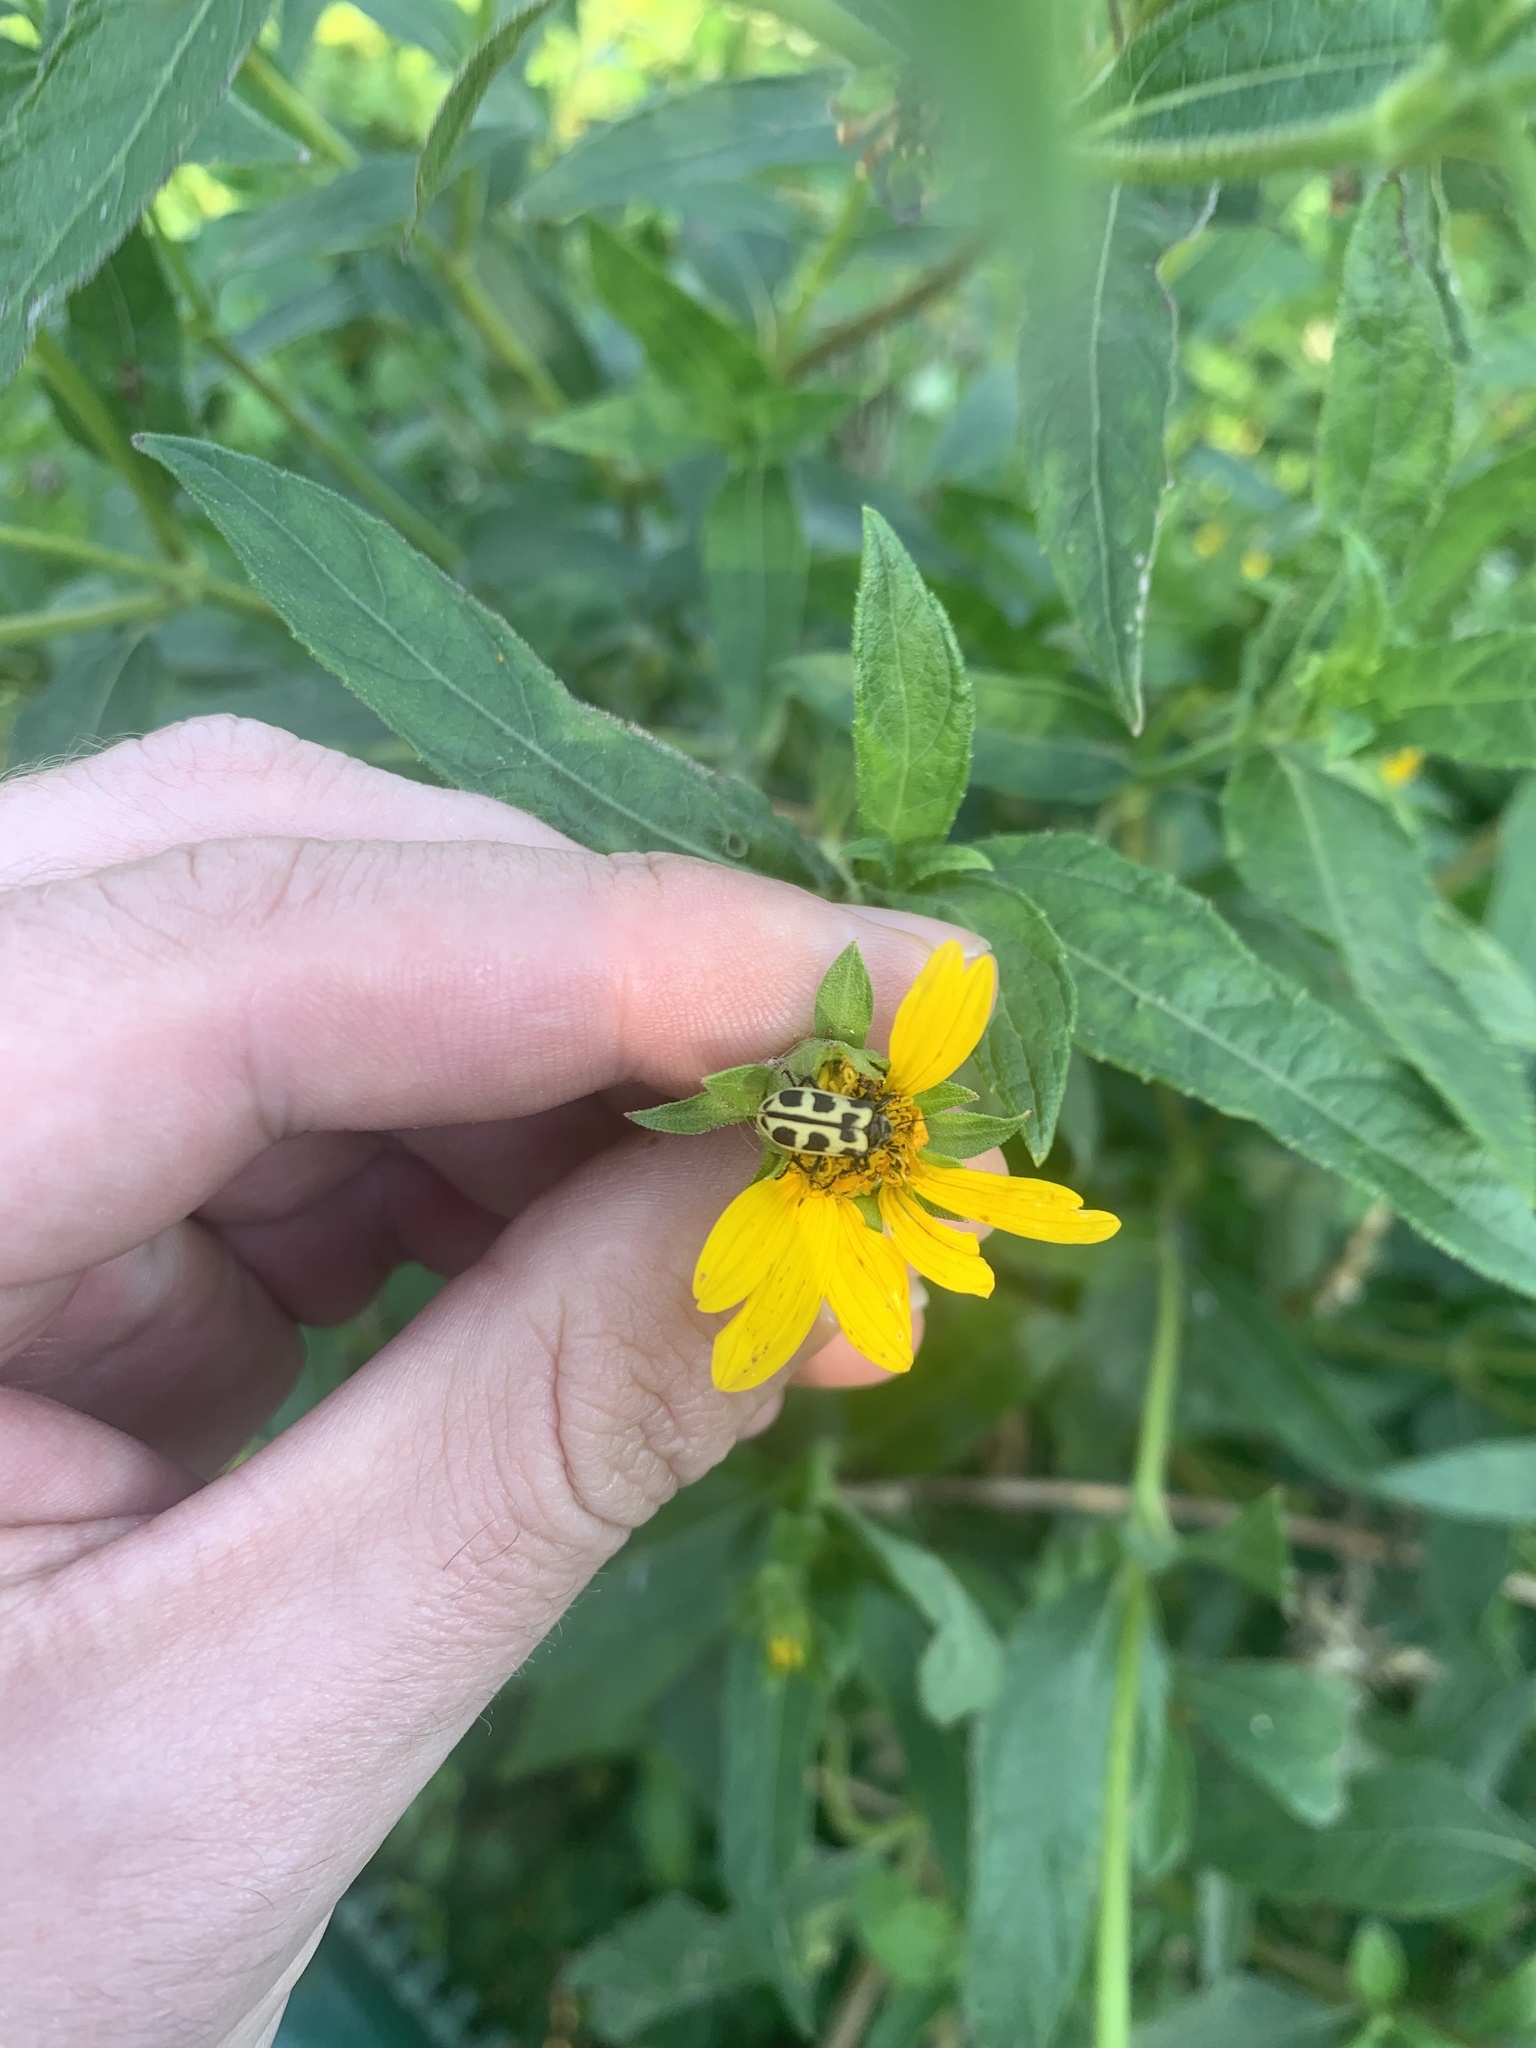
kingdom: Animalia
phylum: Arthropoda
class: Insecta
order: Coleoptera
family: Melyridae
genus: Astylus
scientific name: Astylus atromaculatus
